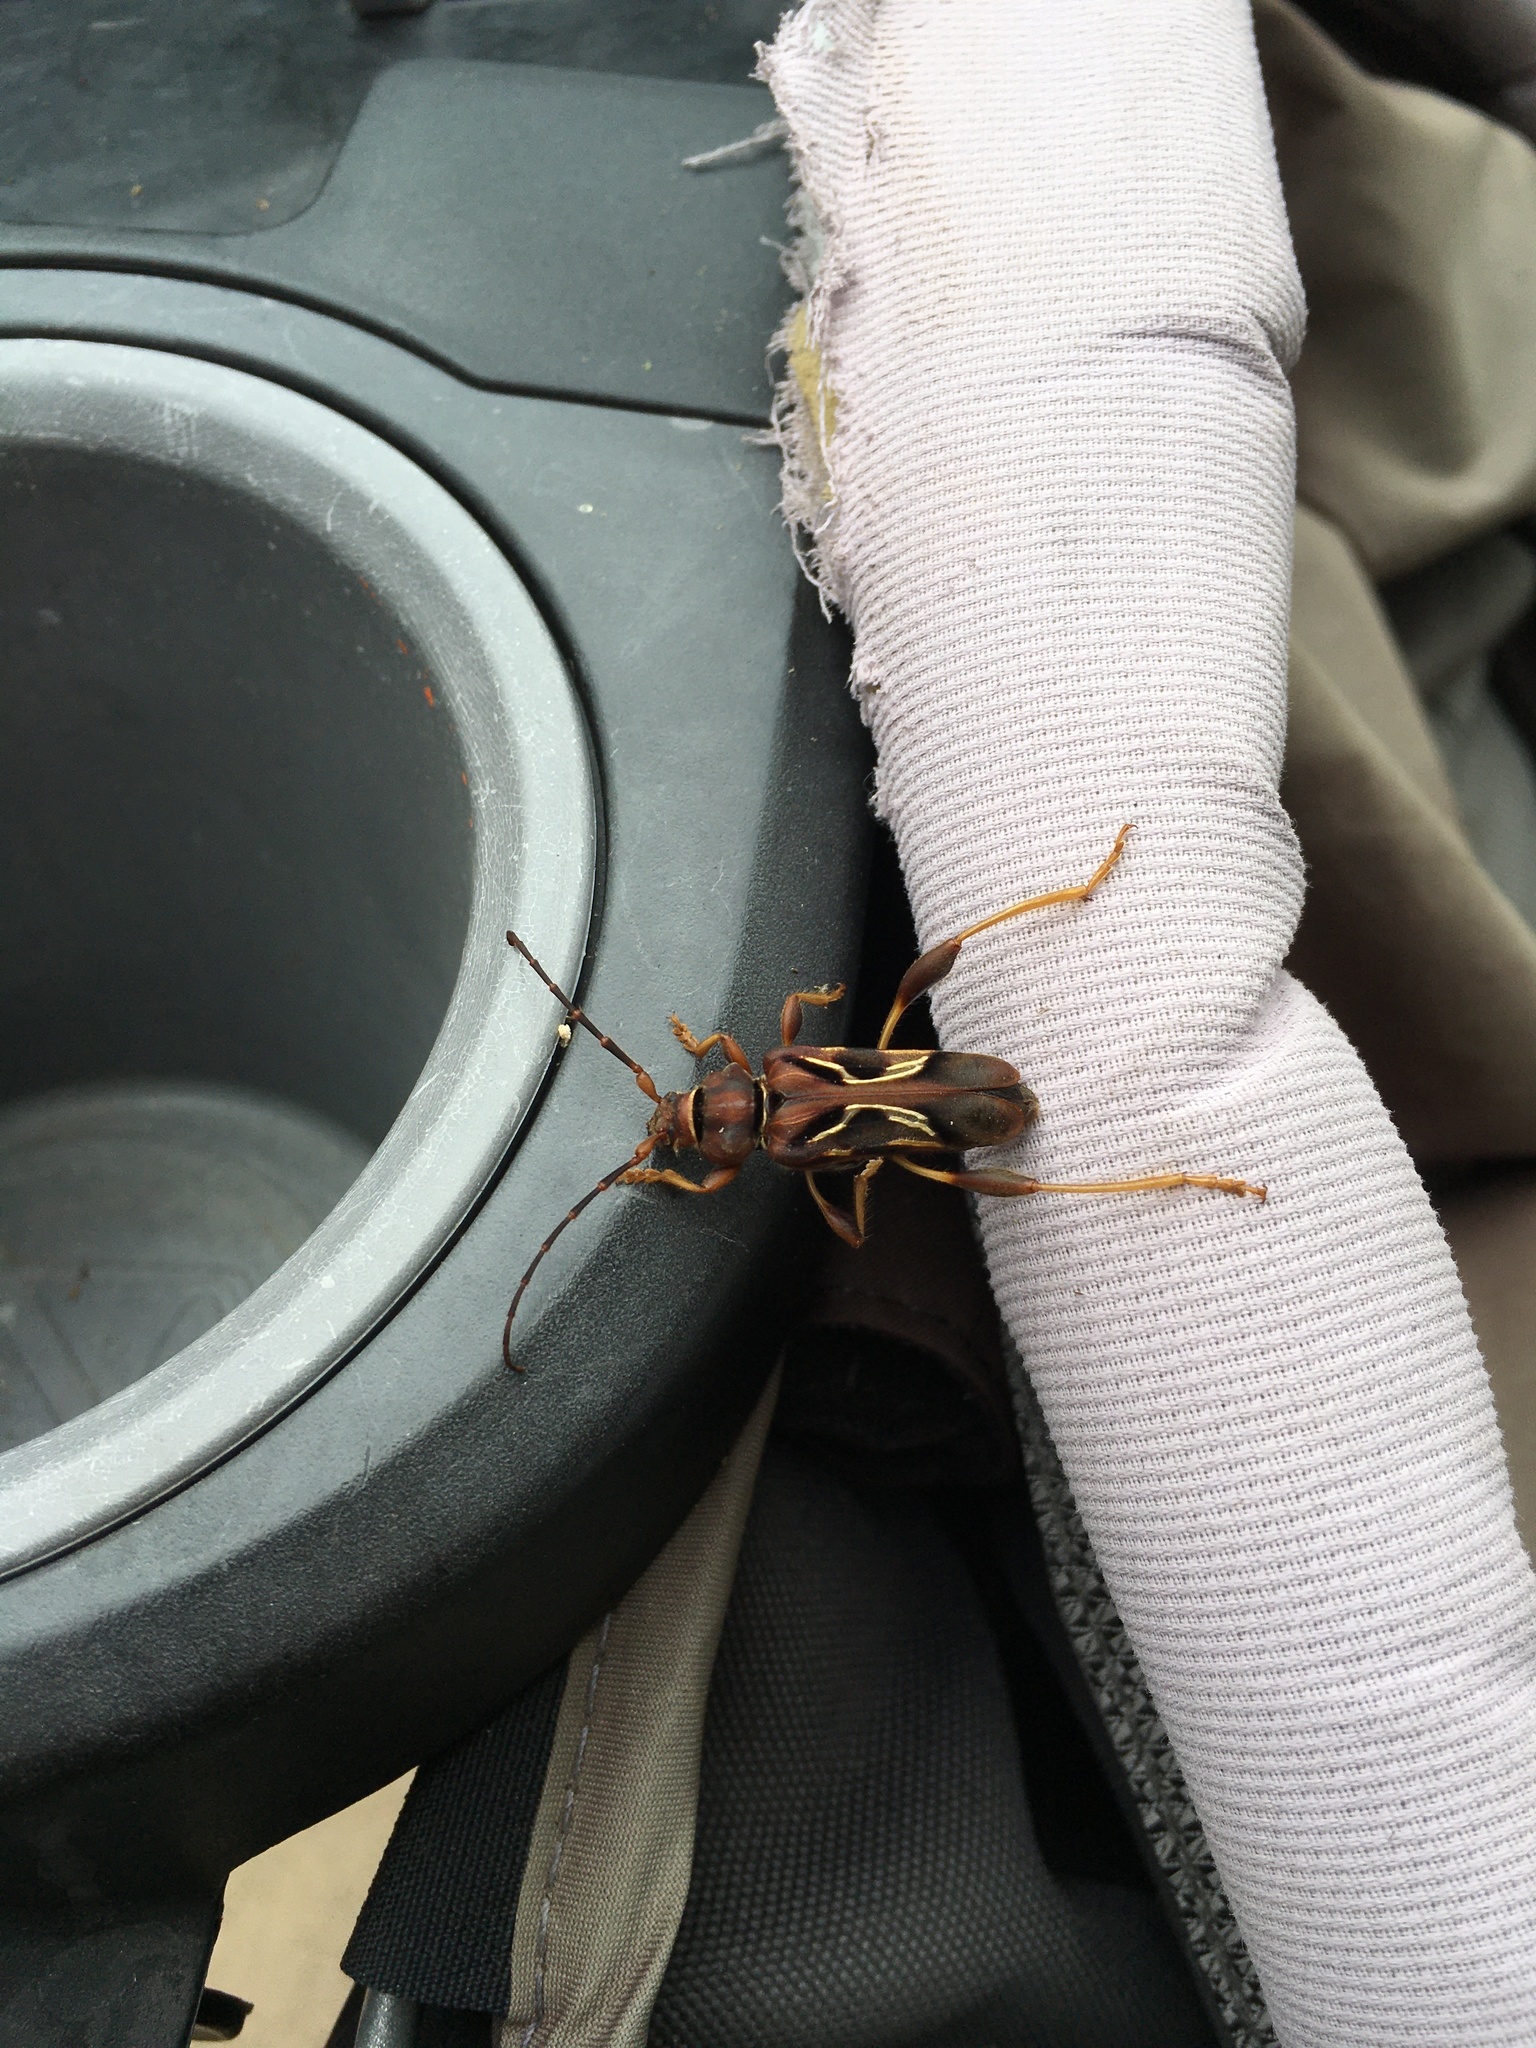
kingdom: Animalia
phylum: Arthropoda
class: Insecta
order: Coleoptera
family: Cerambycidae
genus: Physocnemum
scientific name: Physocnemum andreae
